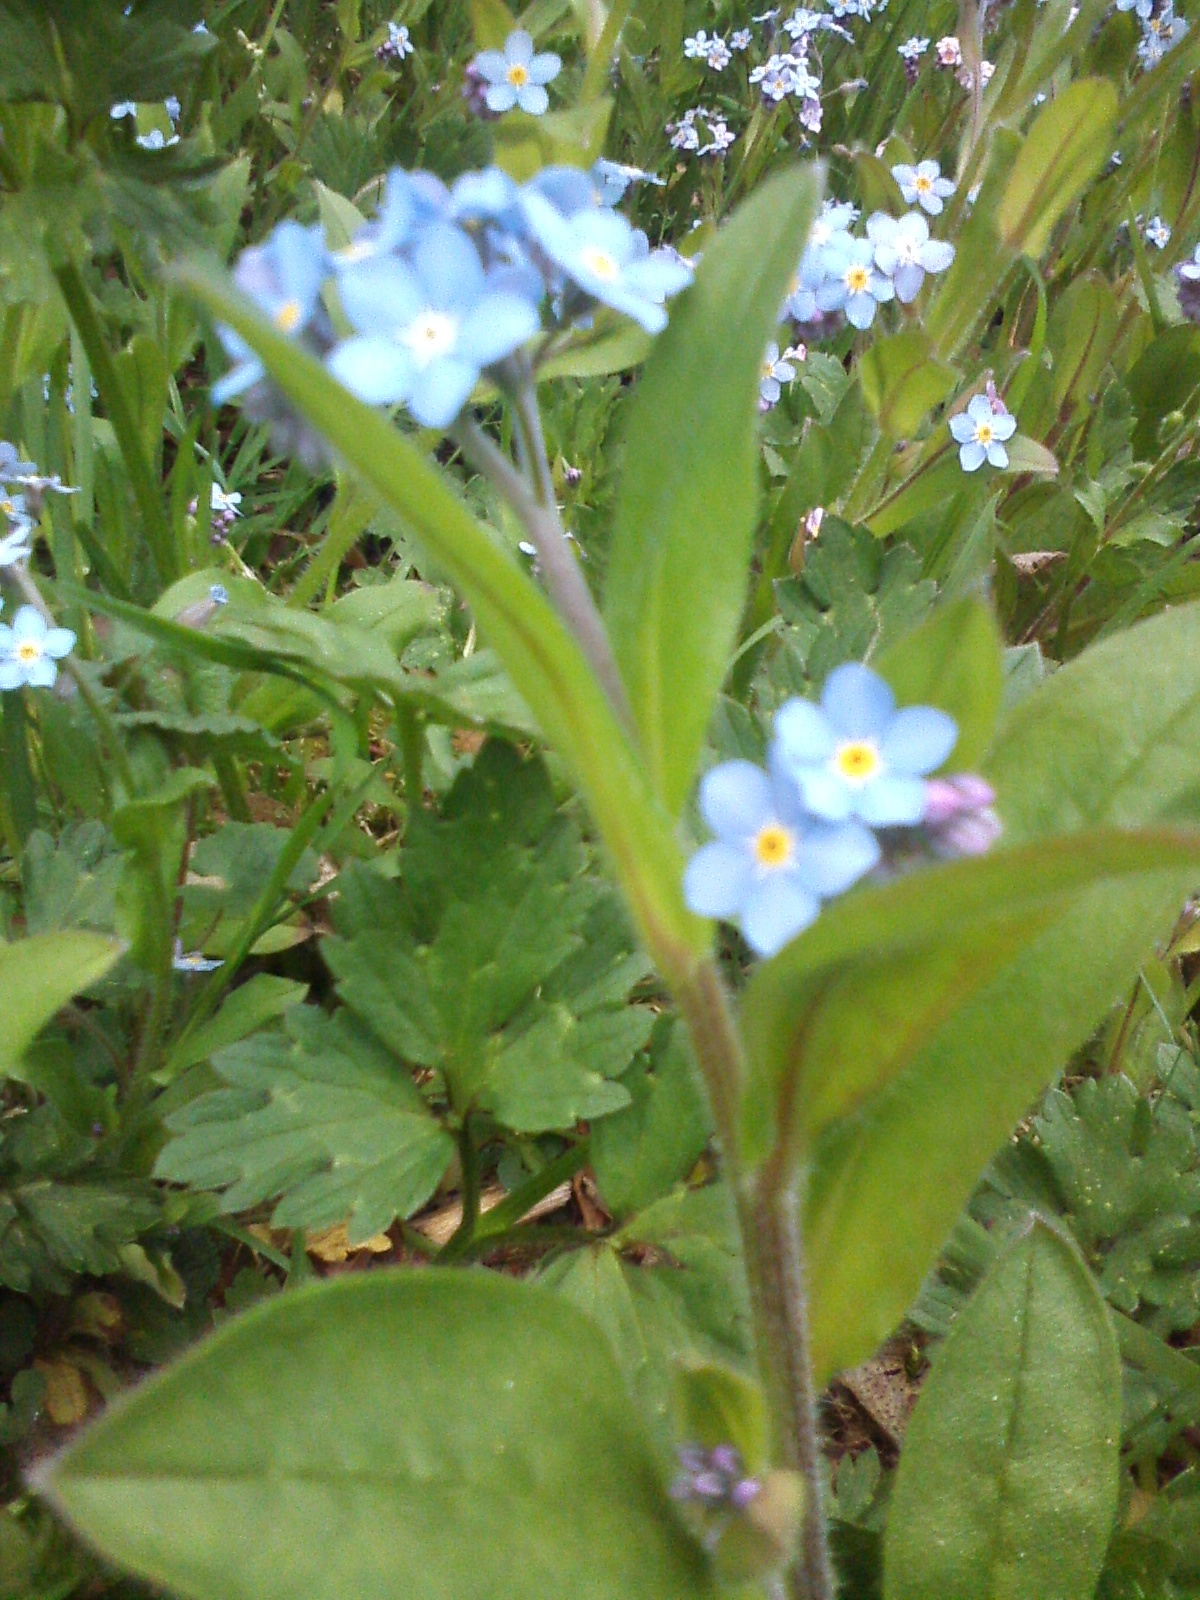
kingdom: Plantae
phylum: Tracheophyta
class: Magnoliopsida
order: Boraginales
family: Boraginaceae
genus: Myosotis
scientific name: Myosotis sylvatica
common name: Wood forget-me-not
